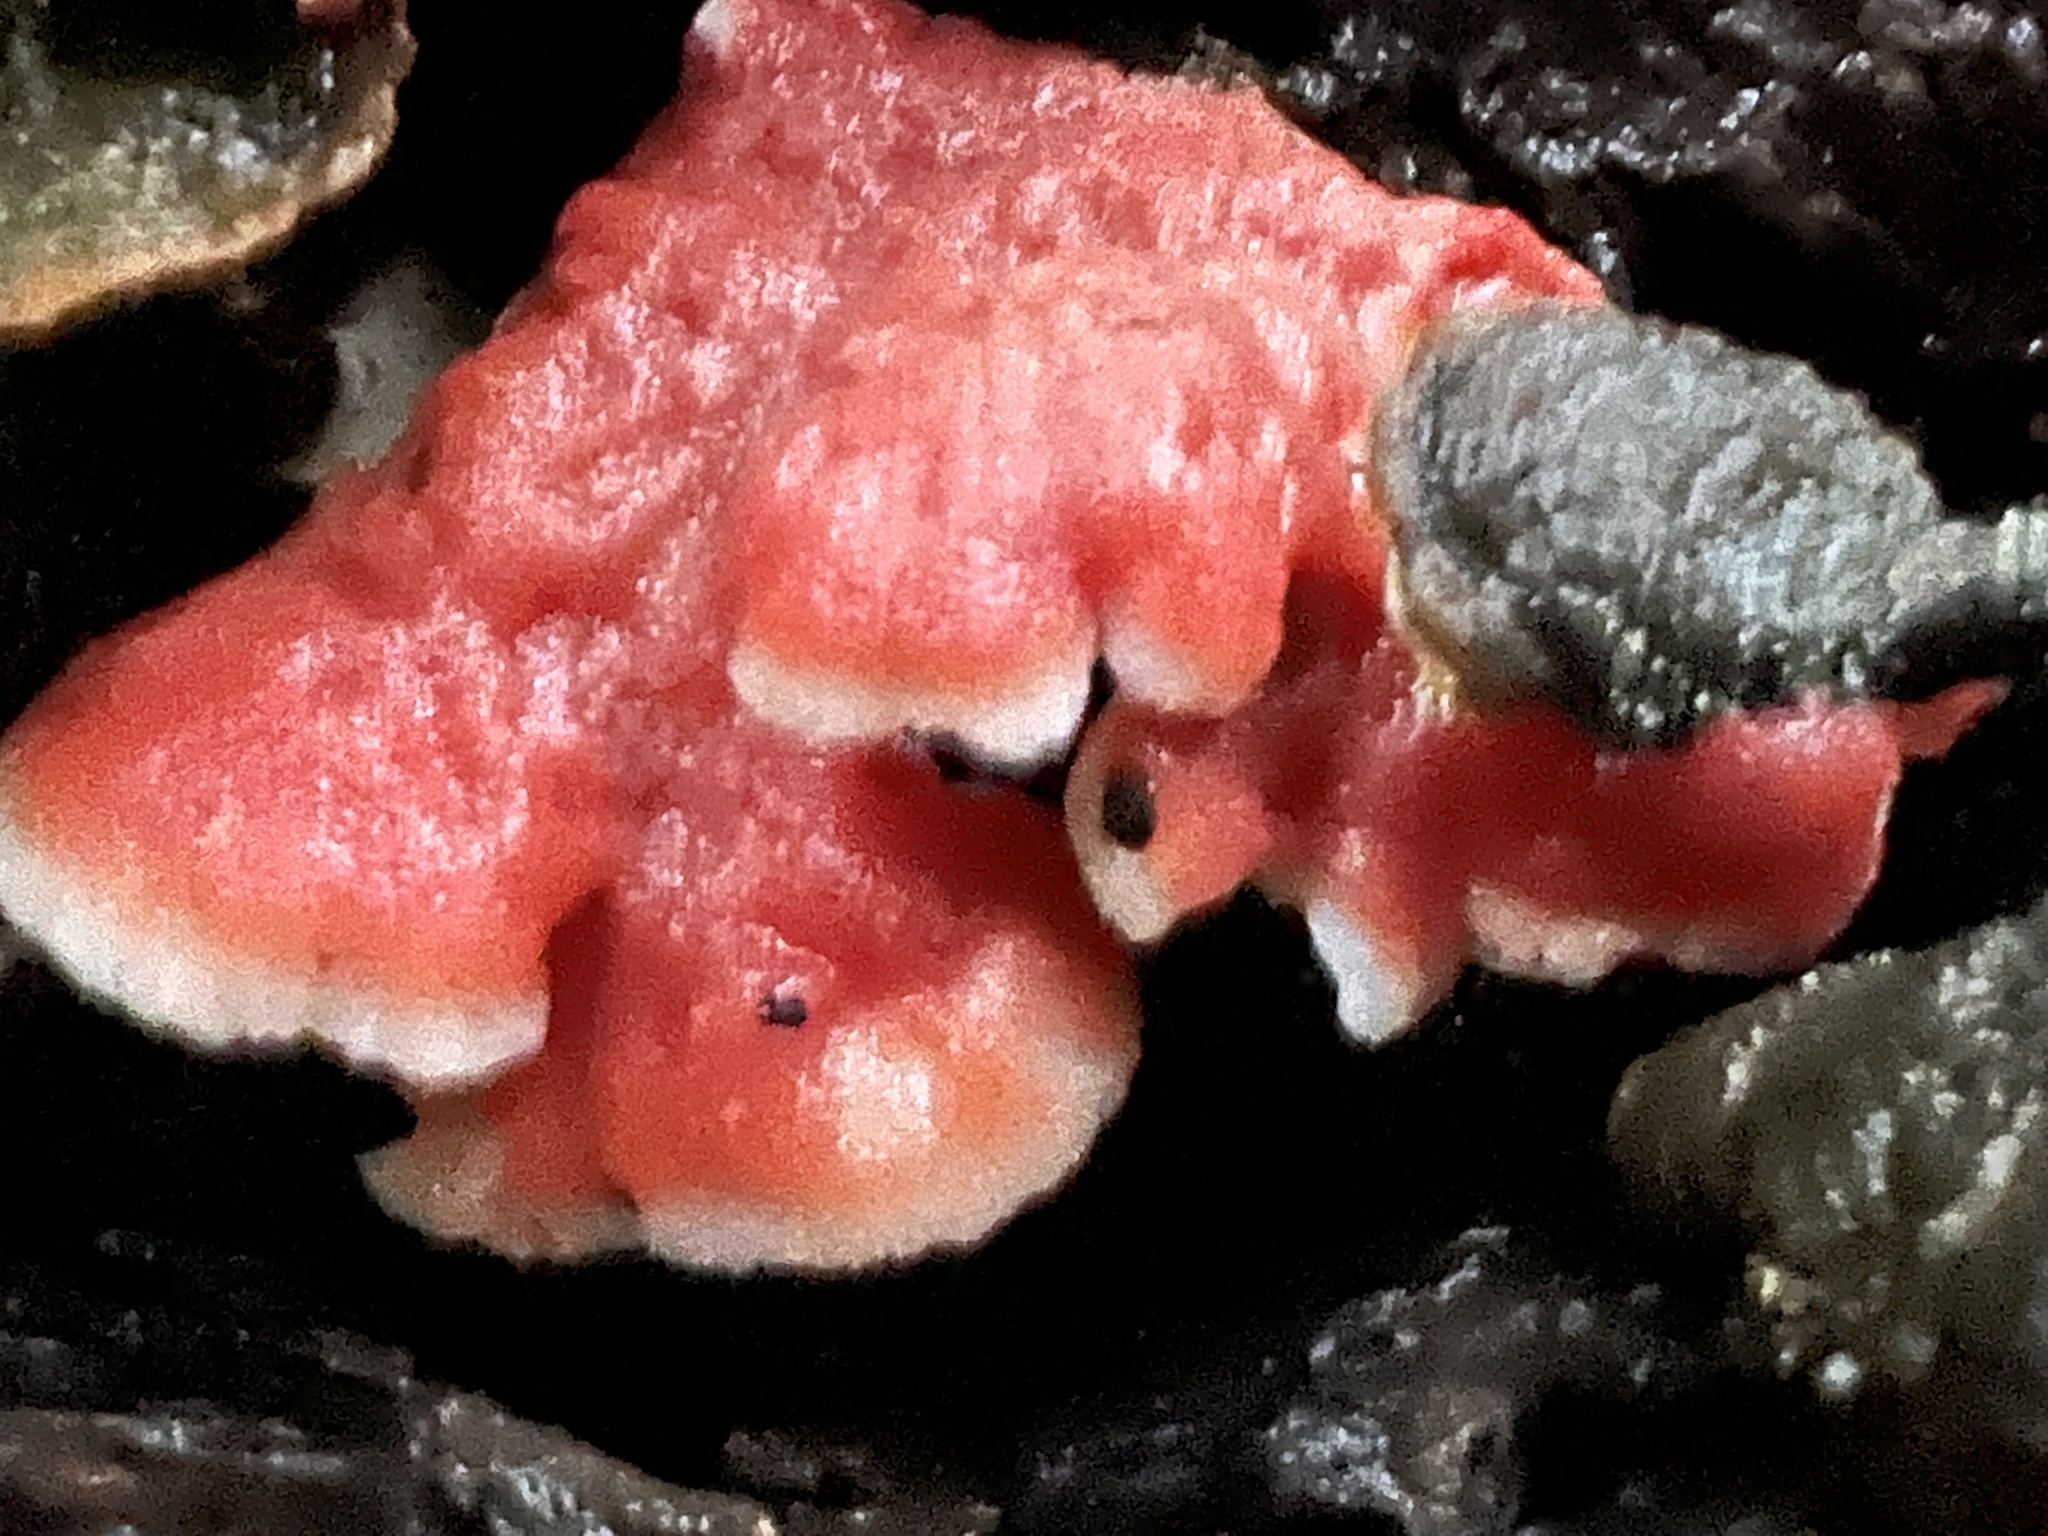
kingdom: Fungi
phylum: Basidiomycota
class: Agaricomycetes
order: Polyporales
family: Irpicaceae
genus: Byssomerulius
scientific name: Byssomerulius incarnatus
